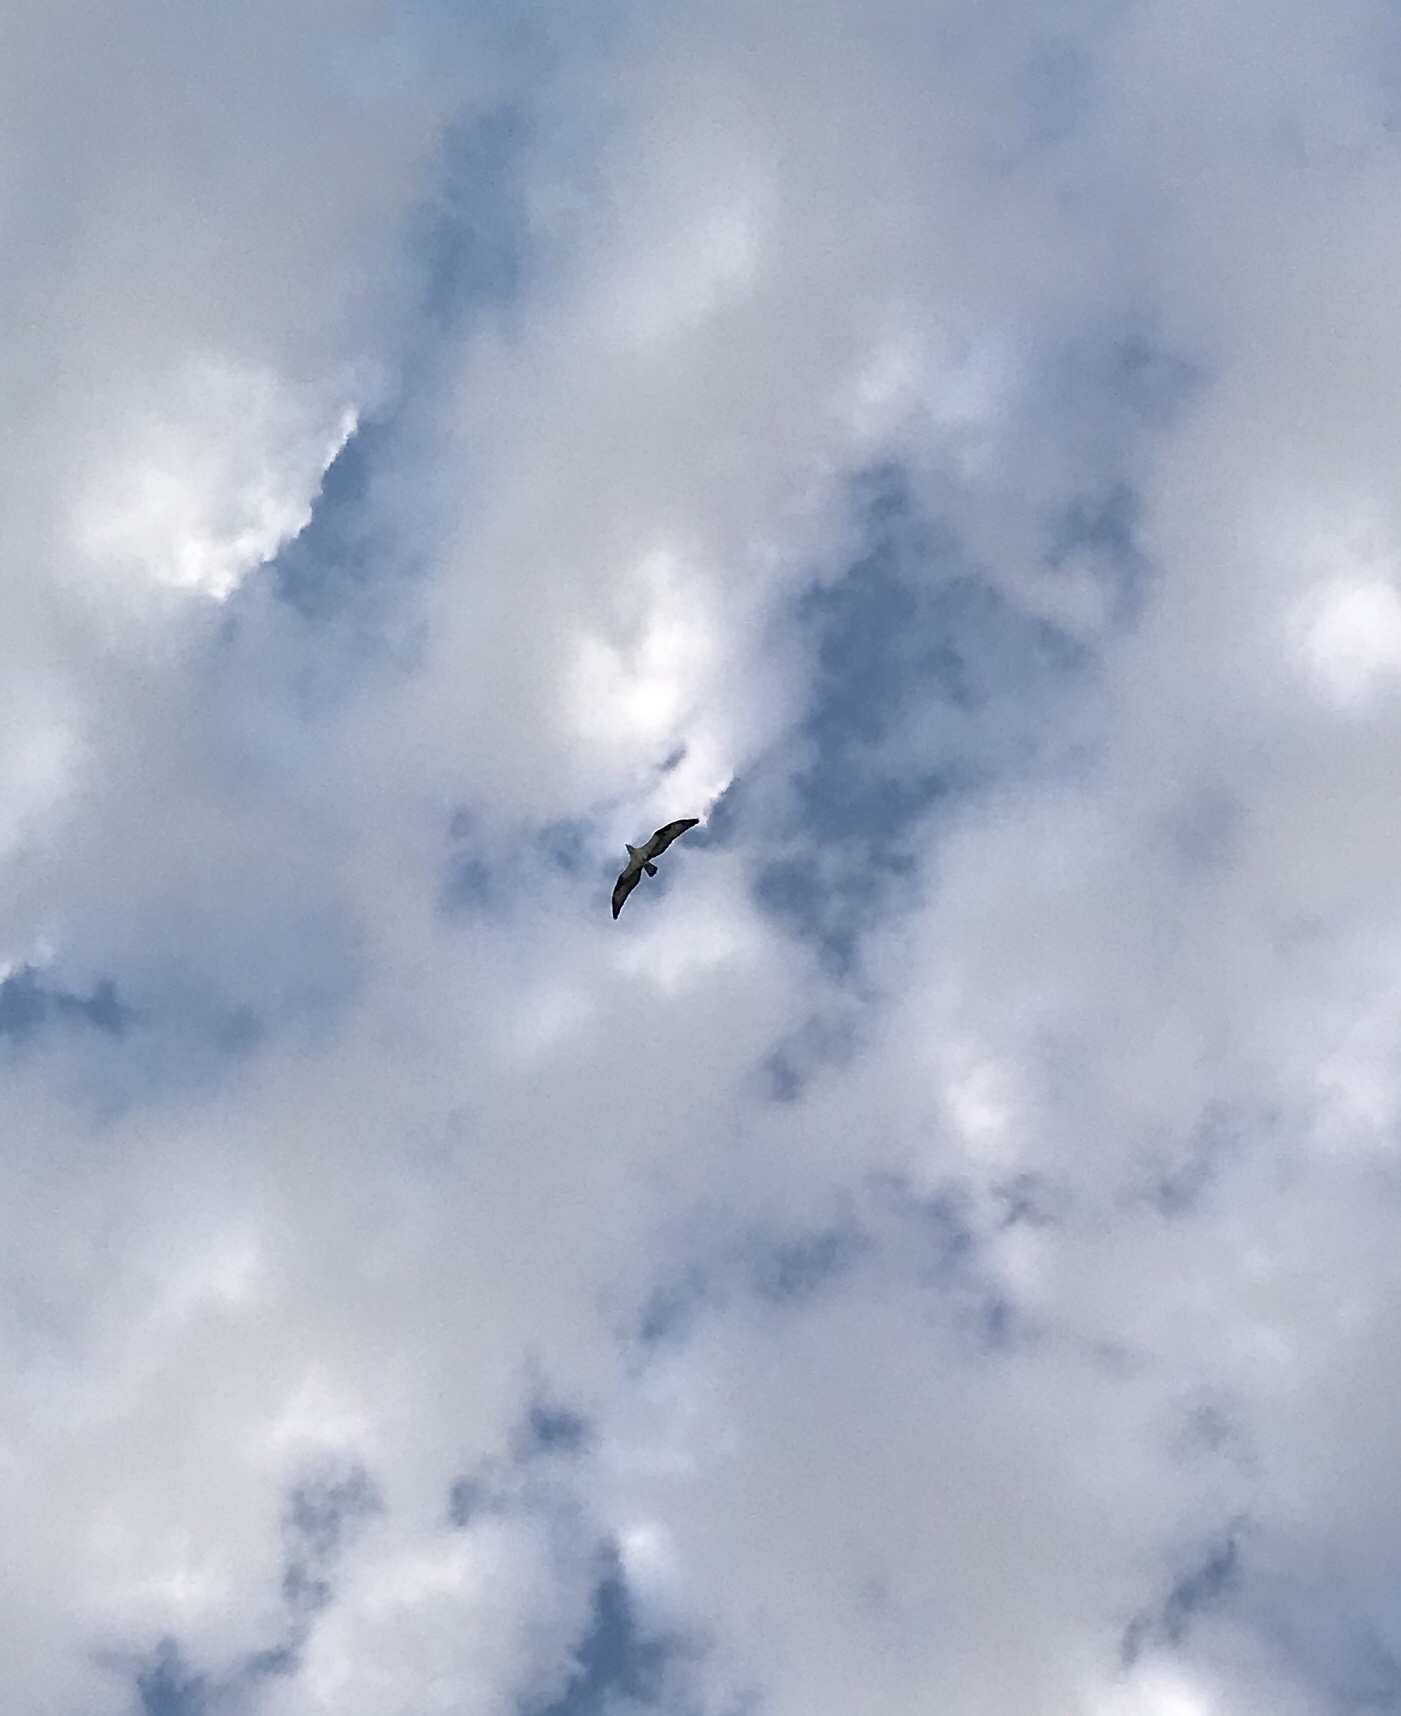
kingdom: Animalia
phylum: Chordata
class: Aves
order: Accipitriformes
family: Pandionidae
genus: Pandion
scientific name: Pandion haliaetus
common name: Osprey
